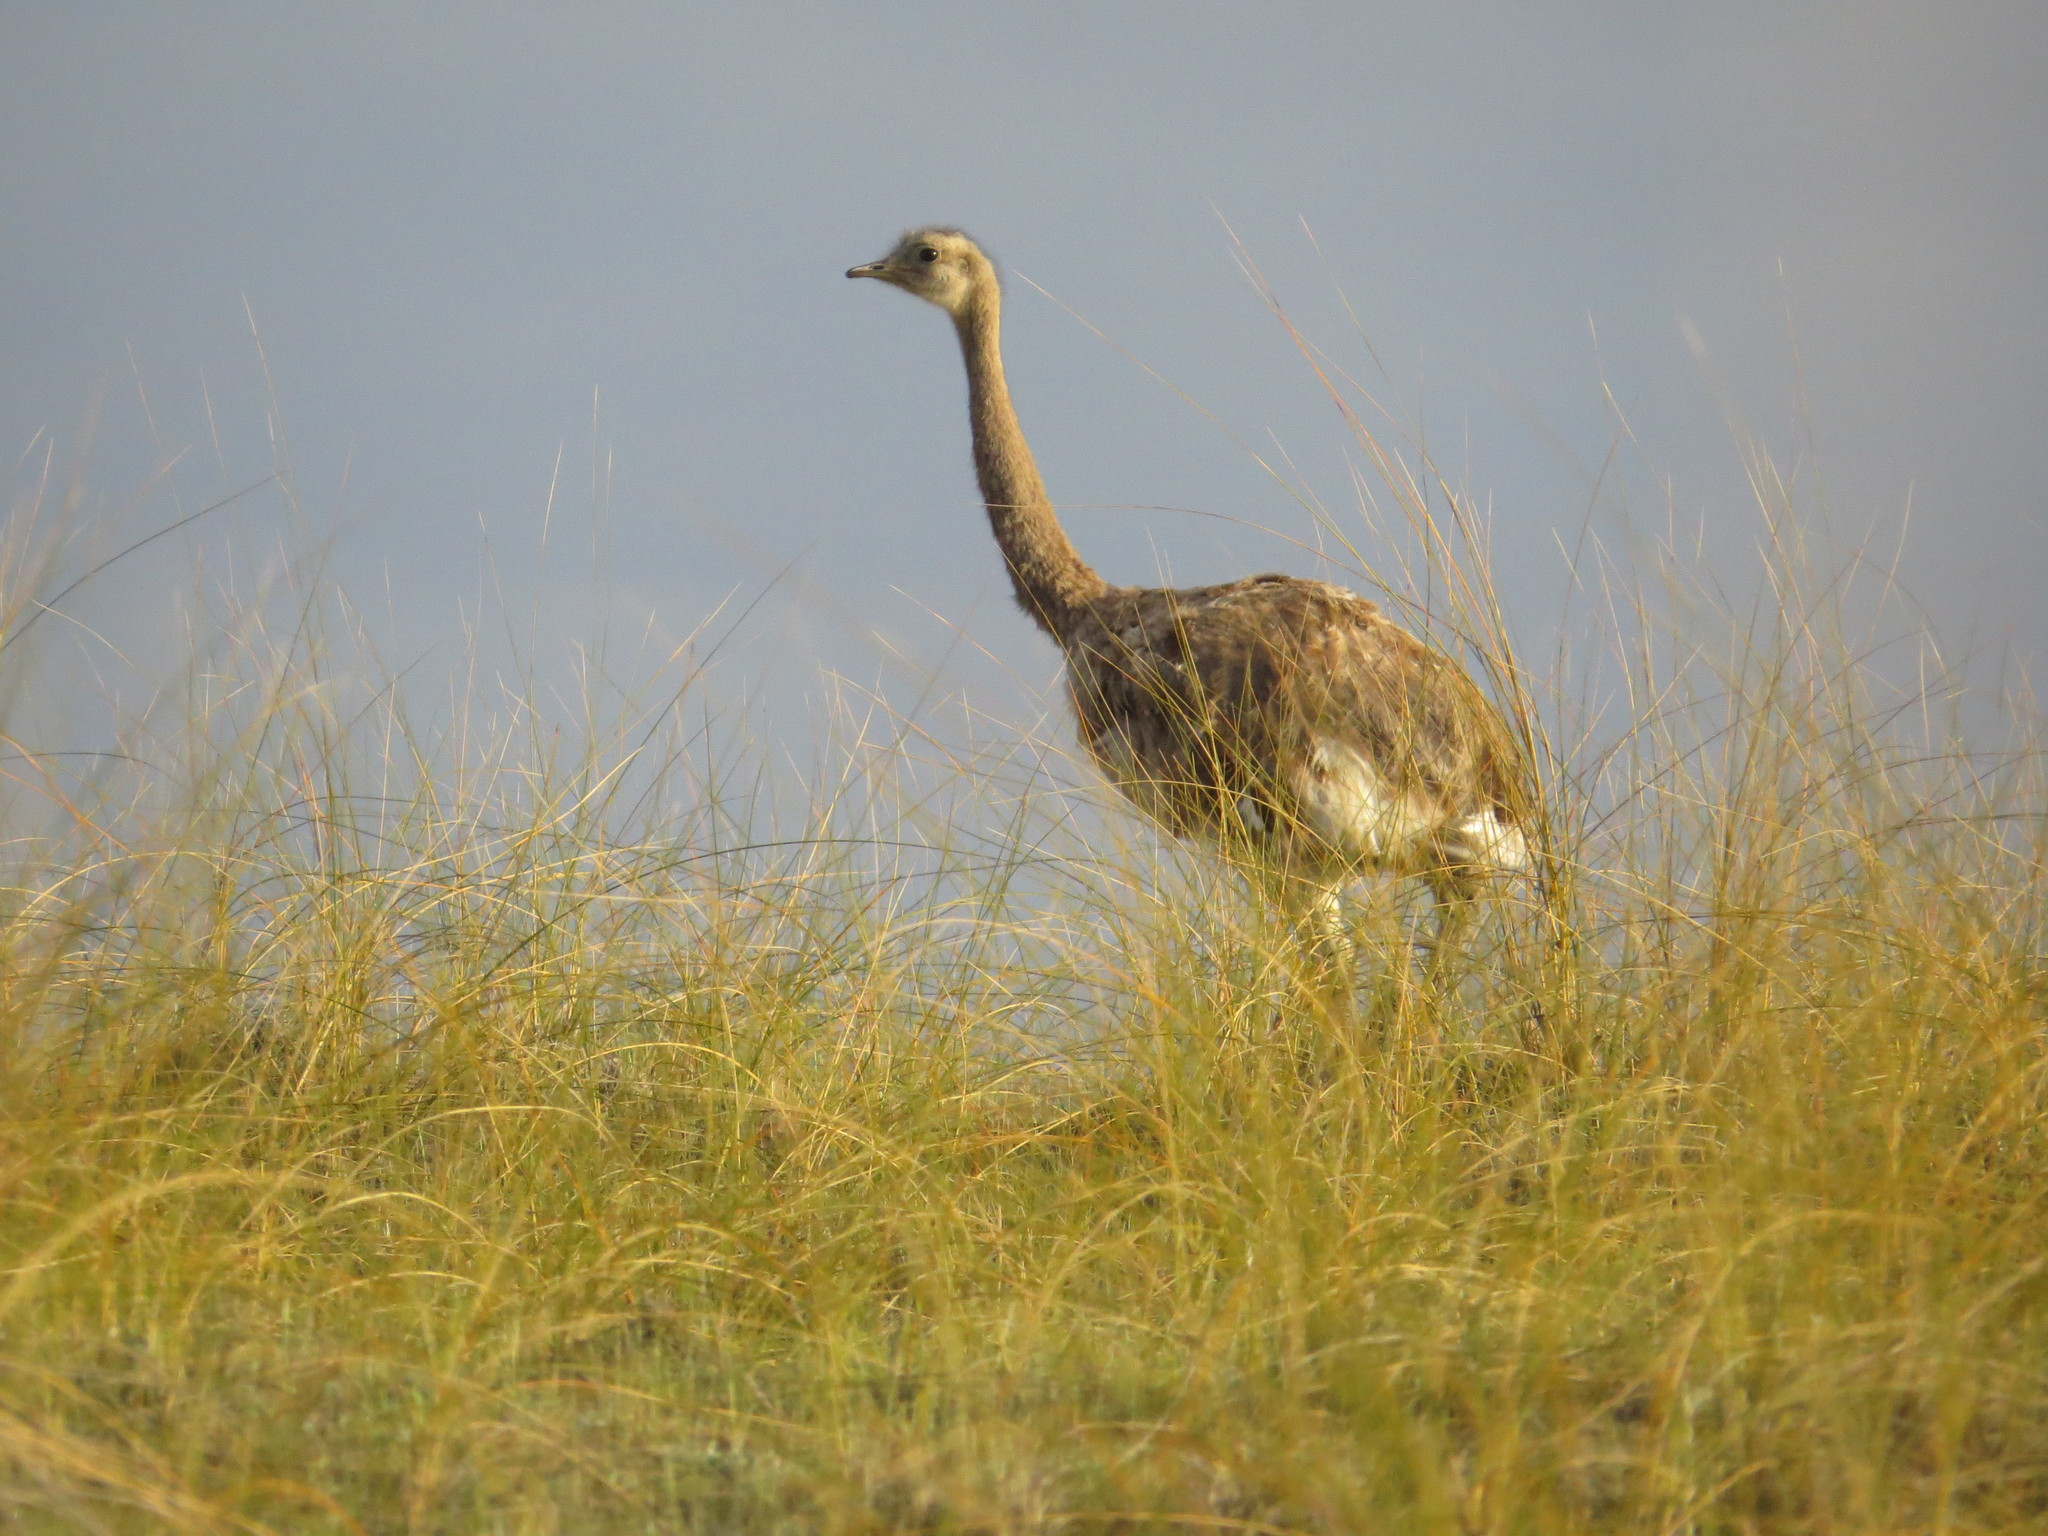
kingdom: Animalia
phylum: Chordata
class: Aves
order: Rheiformes
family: Rheidae
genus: Rhea
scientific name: Rhea pennata
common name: Lesser rhea
